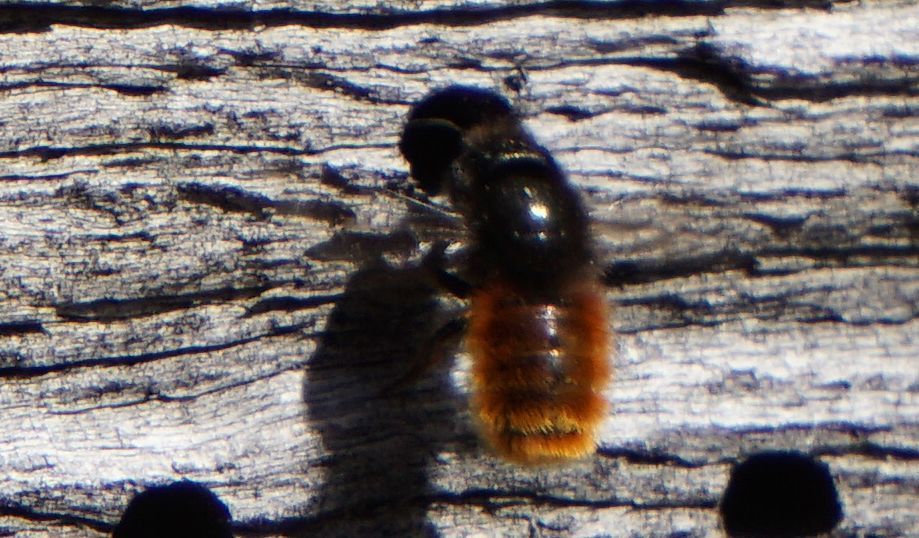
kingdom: Animalia
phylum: Arthropoda
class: Insecta
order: Hymenoptera
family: Megachilidae
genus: Osmia
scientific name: Osmia cornuta
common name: Mason bee
